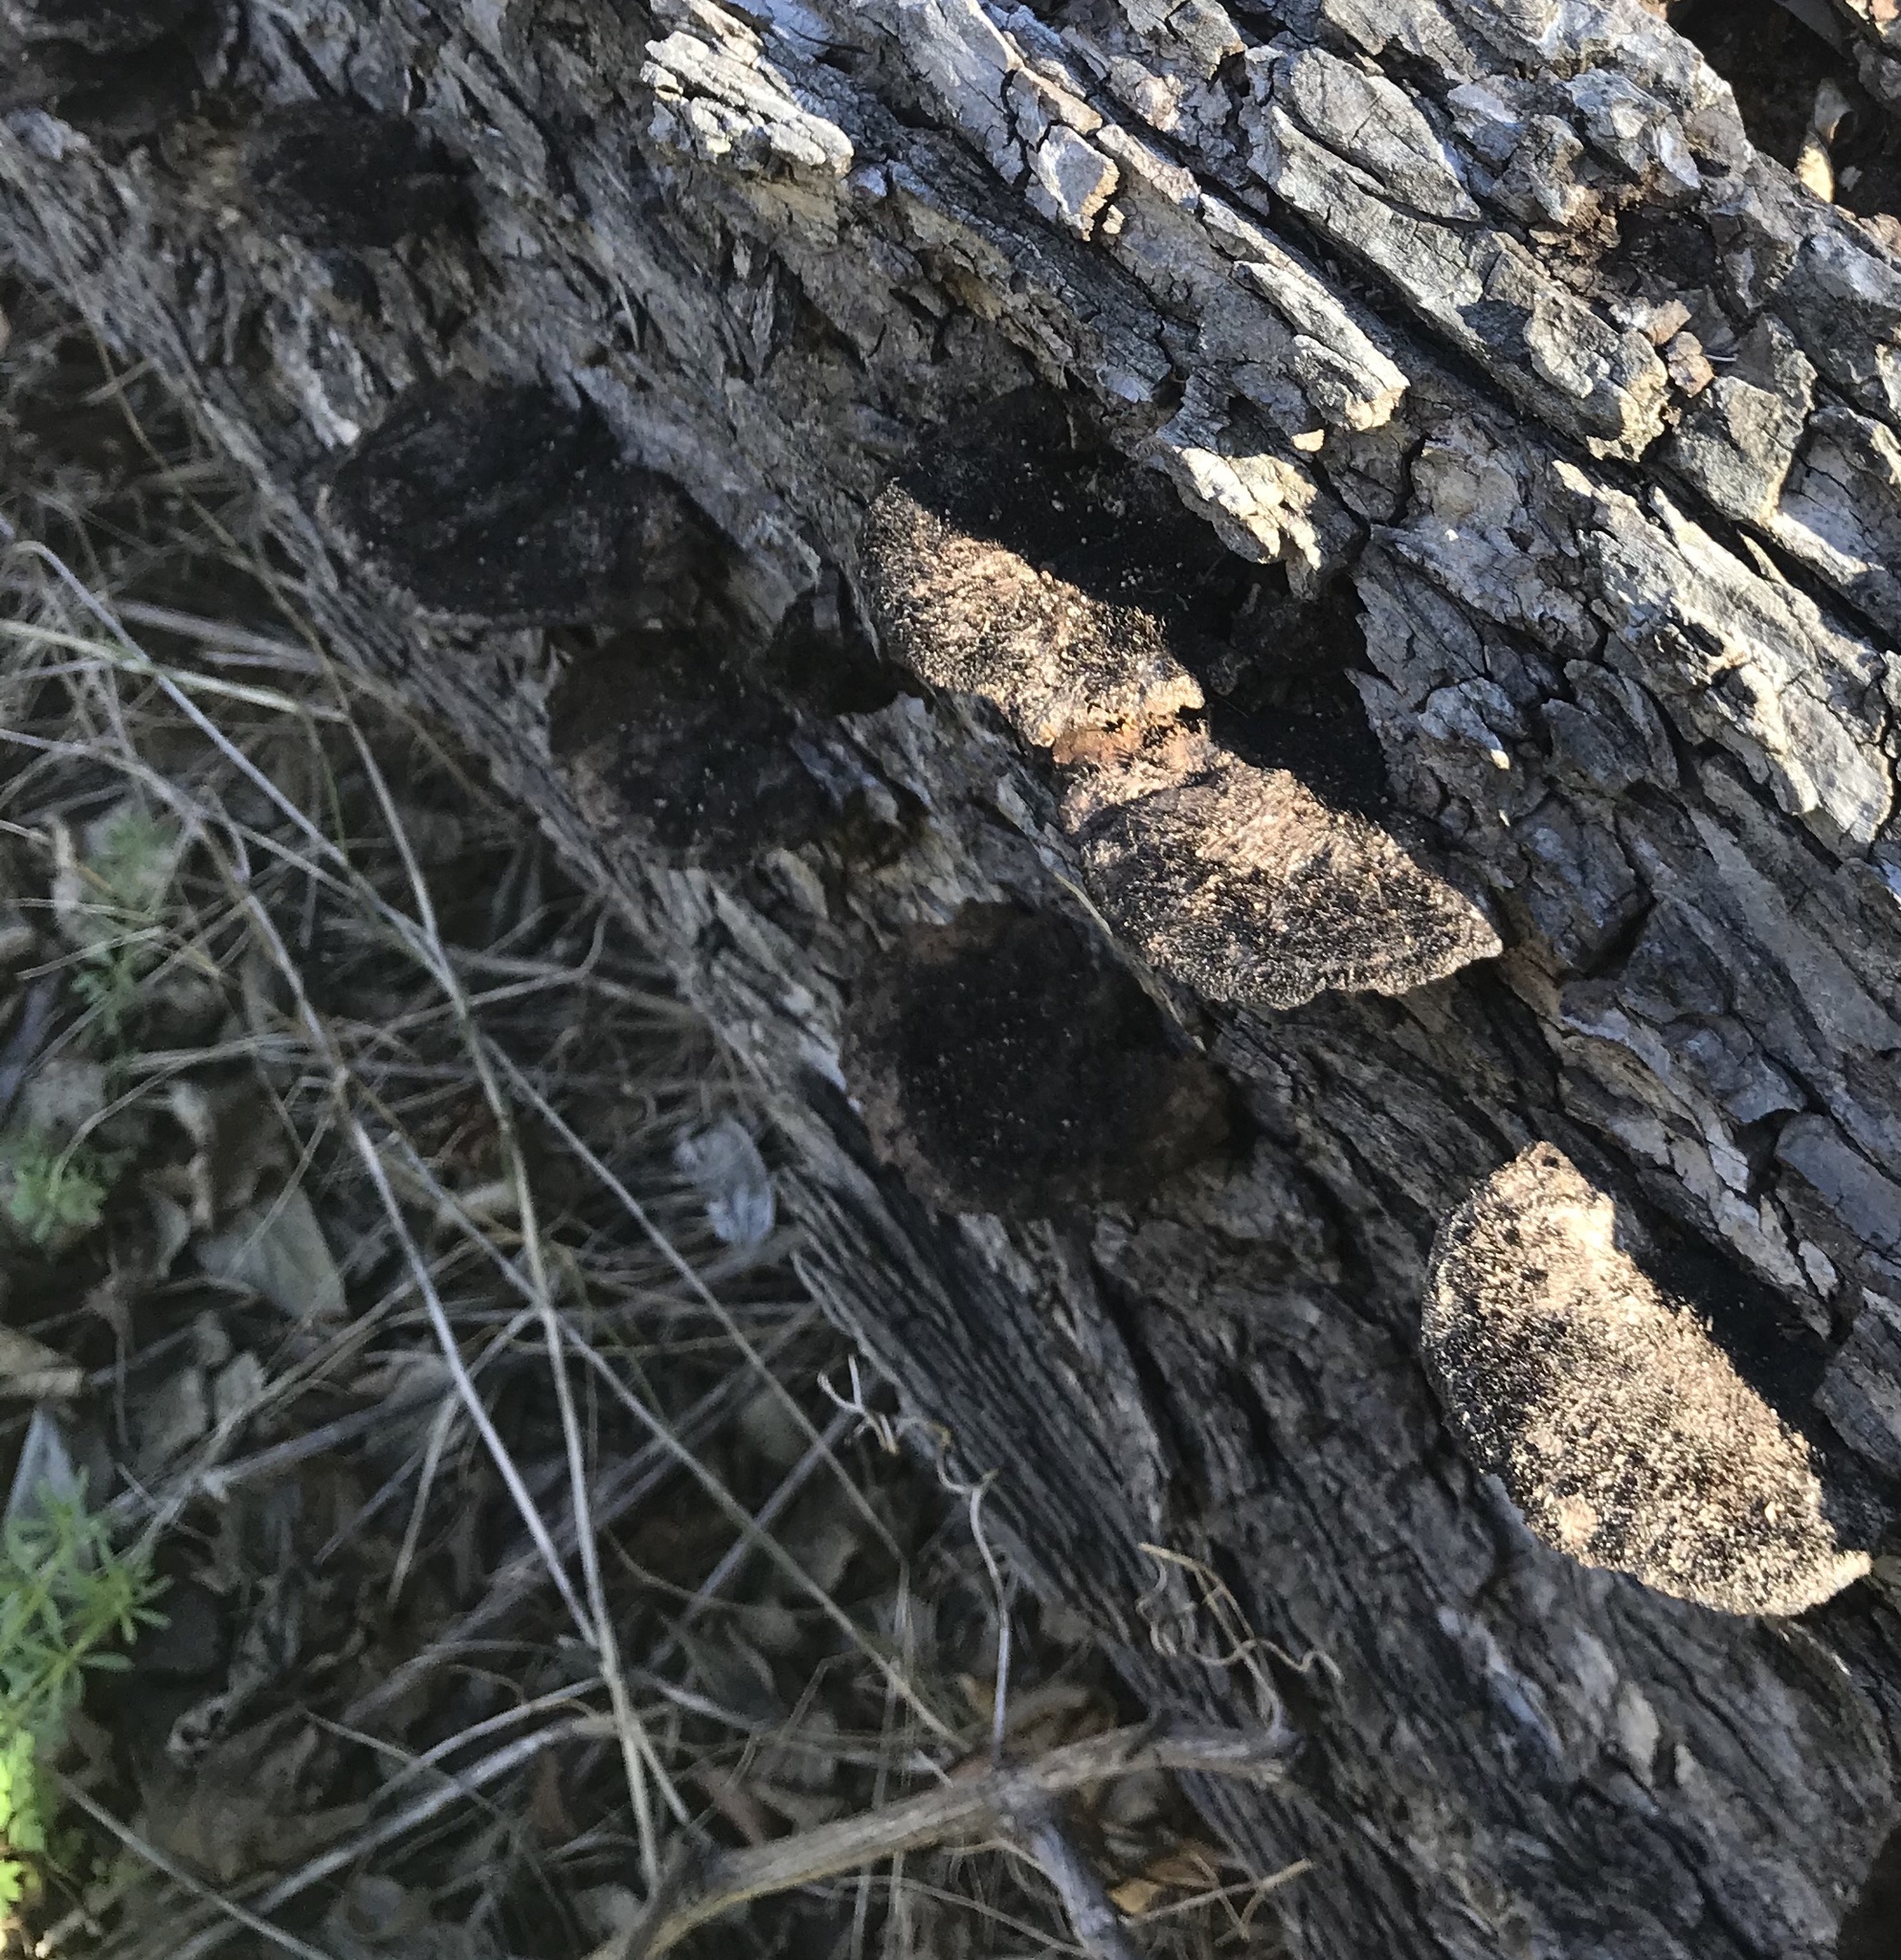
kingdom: Fungi
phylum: Basidiomycota
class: Agaricomycetes
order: Polyporales
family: Cerrenaceae
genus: Cerrena
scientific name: Cerrena hydnoides
